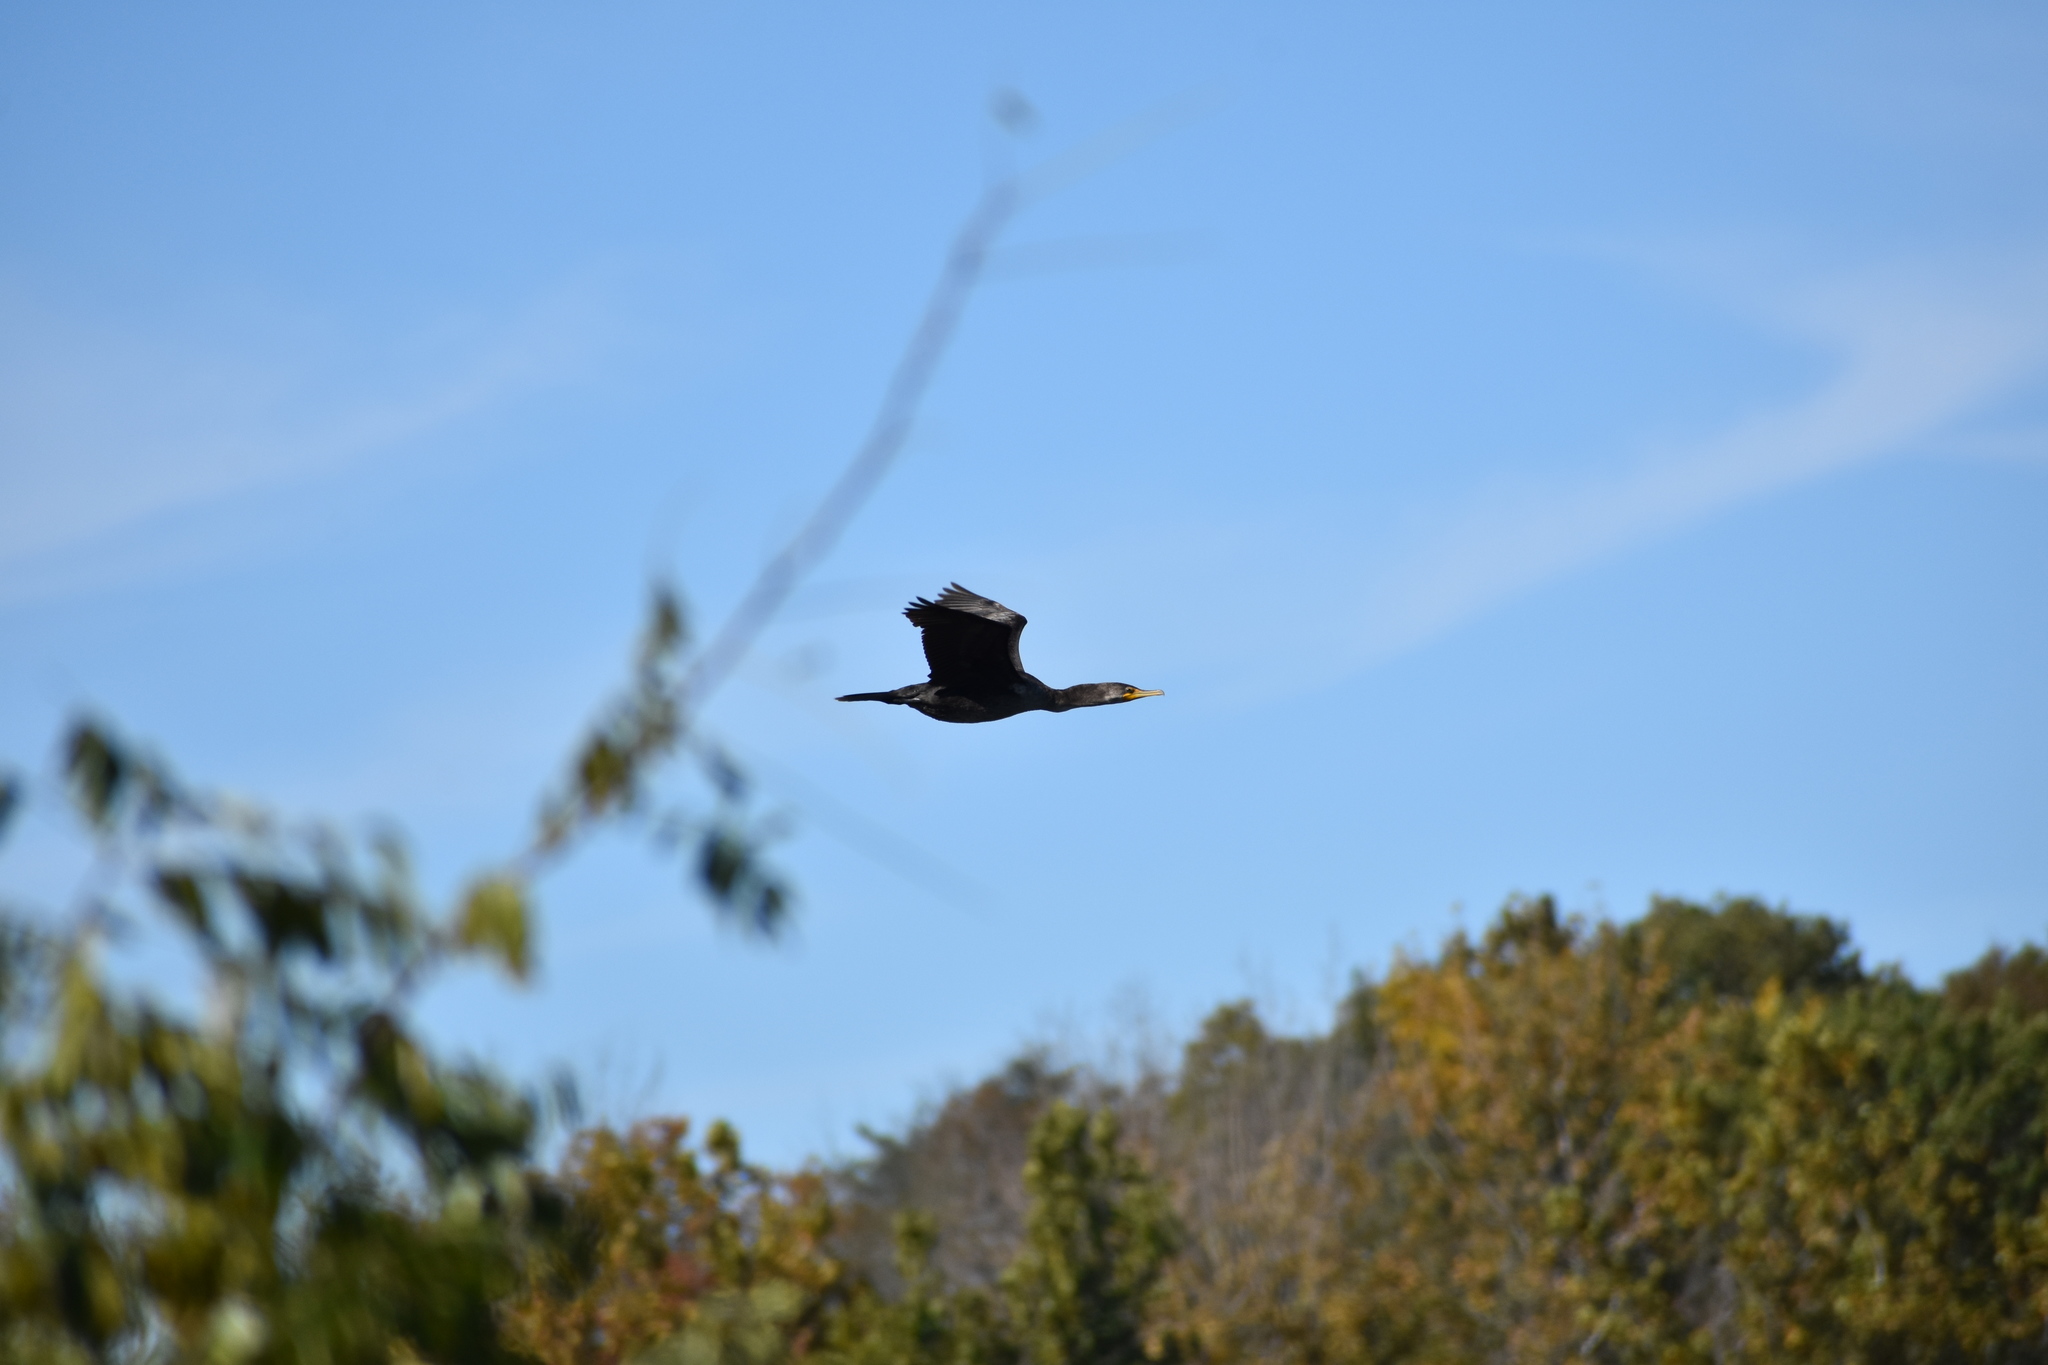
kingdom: Animalia
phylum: Chordata
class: Aves
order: Suliformes
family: Phalacrocoracidae
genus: Phalacrocorax
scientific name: Phalacrocorax auritus
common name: Double-crested cormorant
